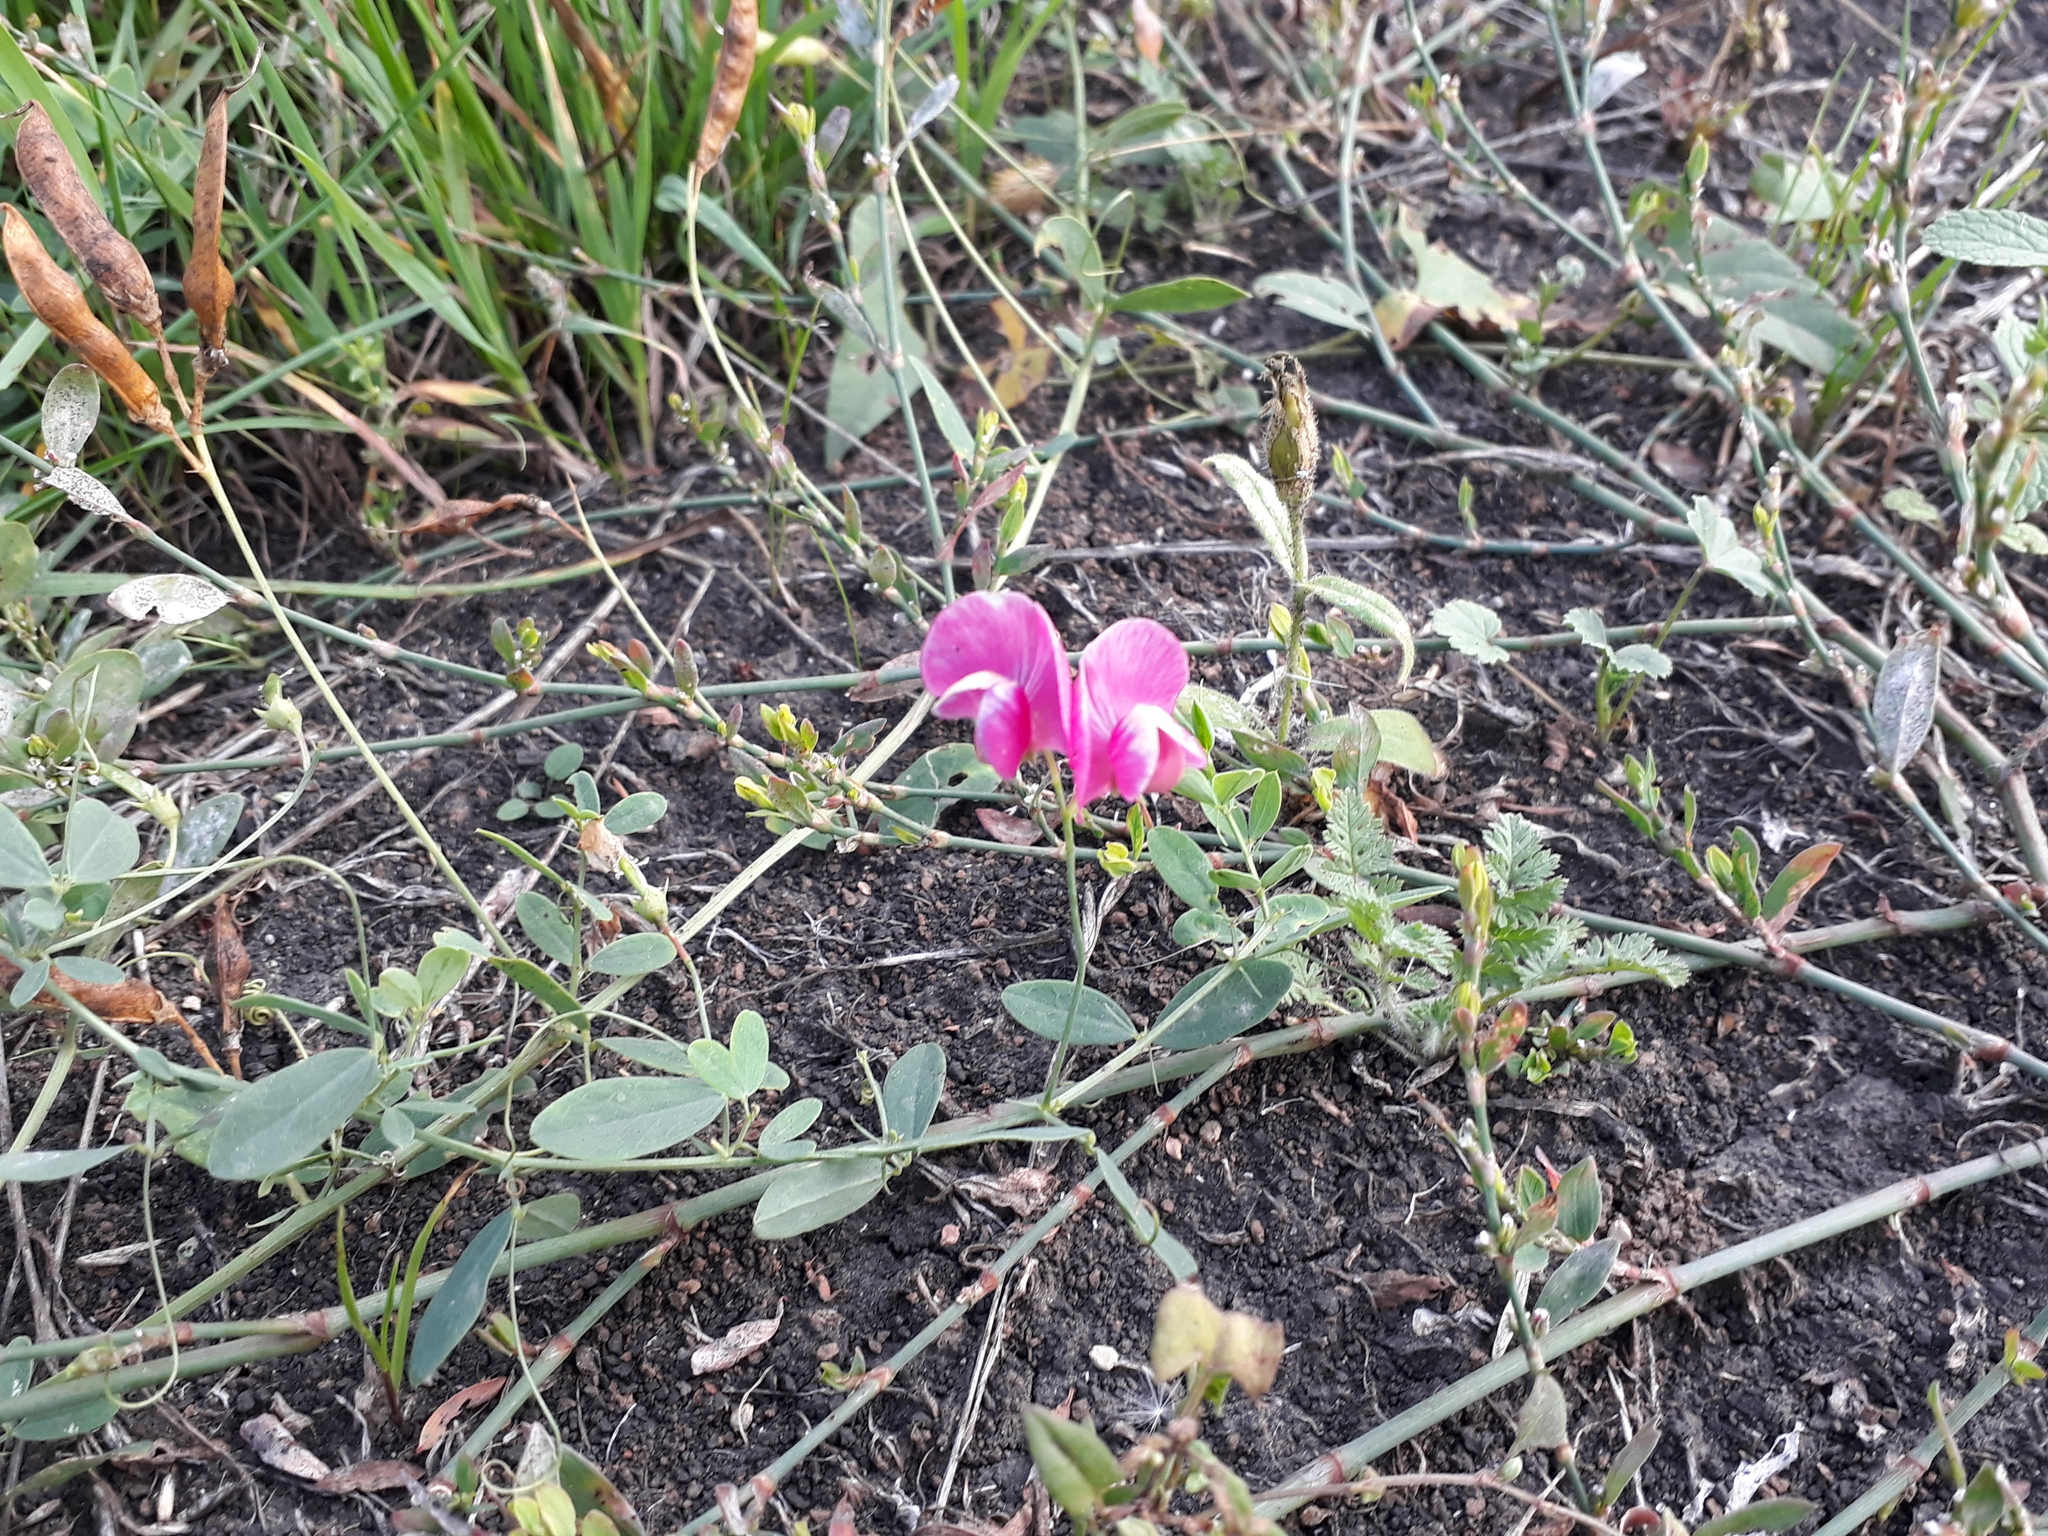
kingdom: Plantae
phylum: Tracheophyta
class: Magnoliopsida
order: Fabales
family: Fabaceae
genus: Lathyrus
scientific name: Lathyrus tuberosus
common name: Tuberous pea
